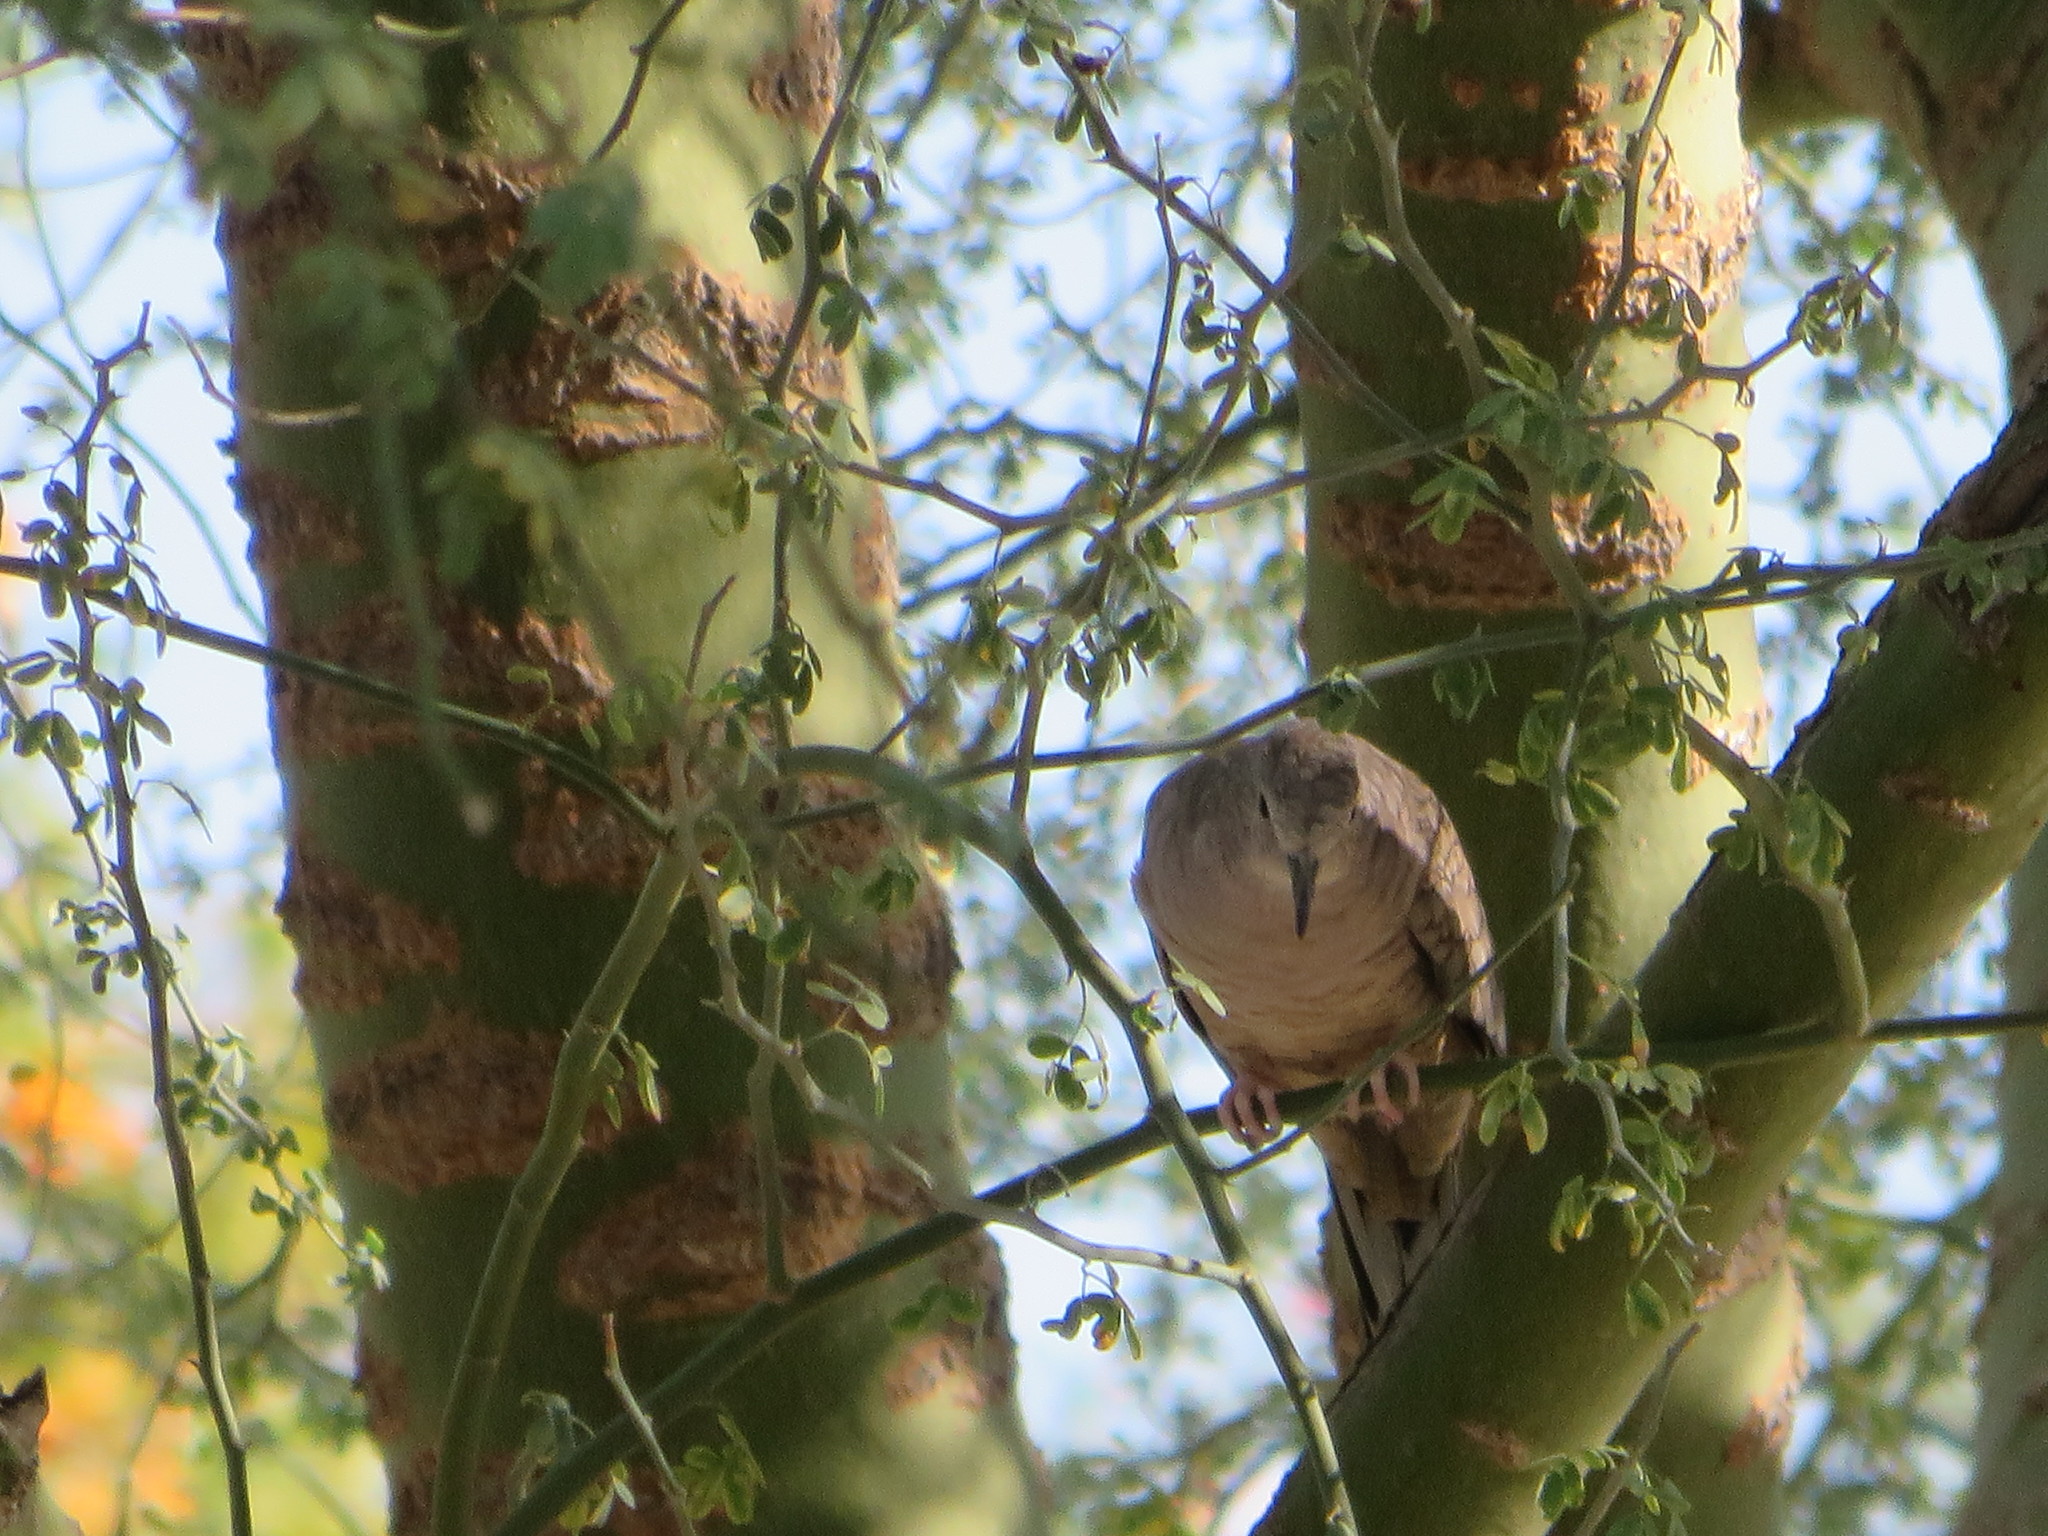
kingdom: Animalia
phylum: Chordata
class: Aves
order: Columbiformes
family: Columbidae
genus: Columbina
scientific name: Columbina inca
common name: Inca dove
